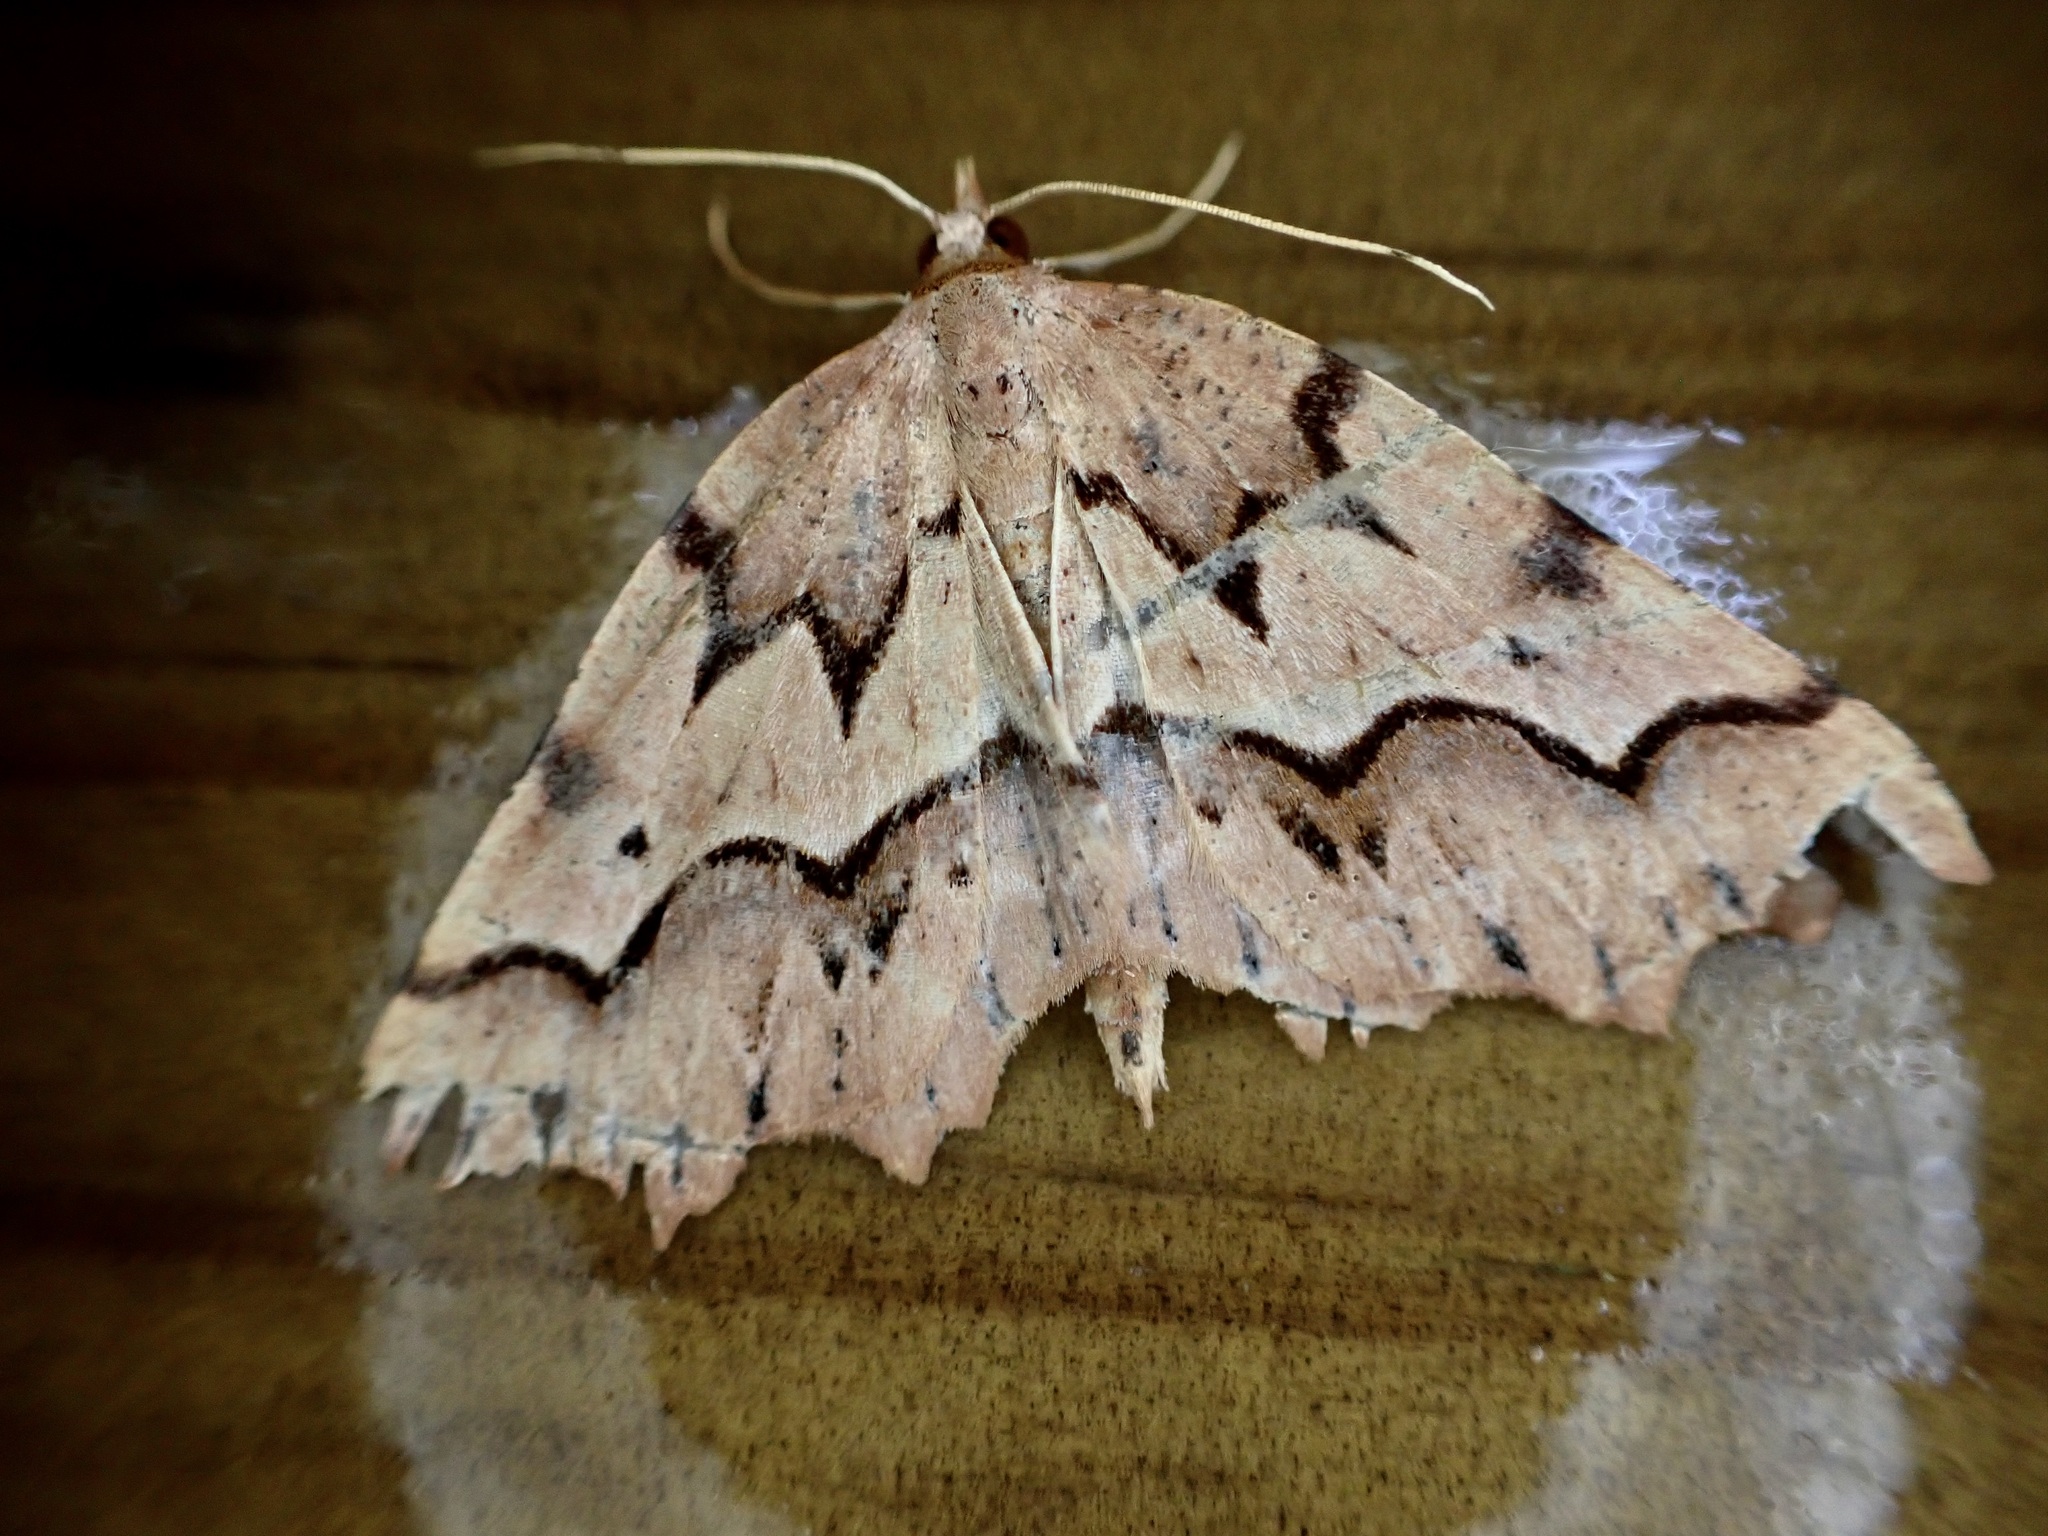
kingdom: Animalia
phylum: Arthropoda
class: Insecta
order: Lepidoptera
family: Geometridae
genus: Ischalis
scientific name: Ischalis fortinata
